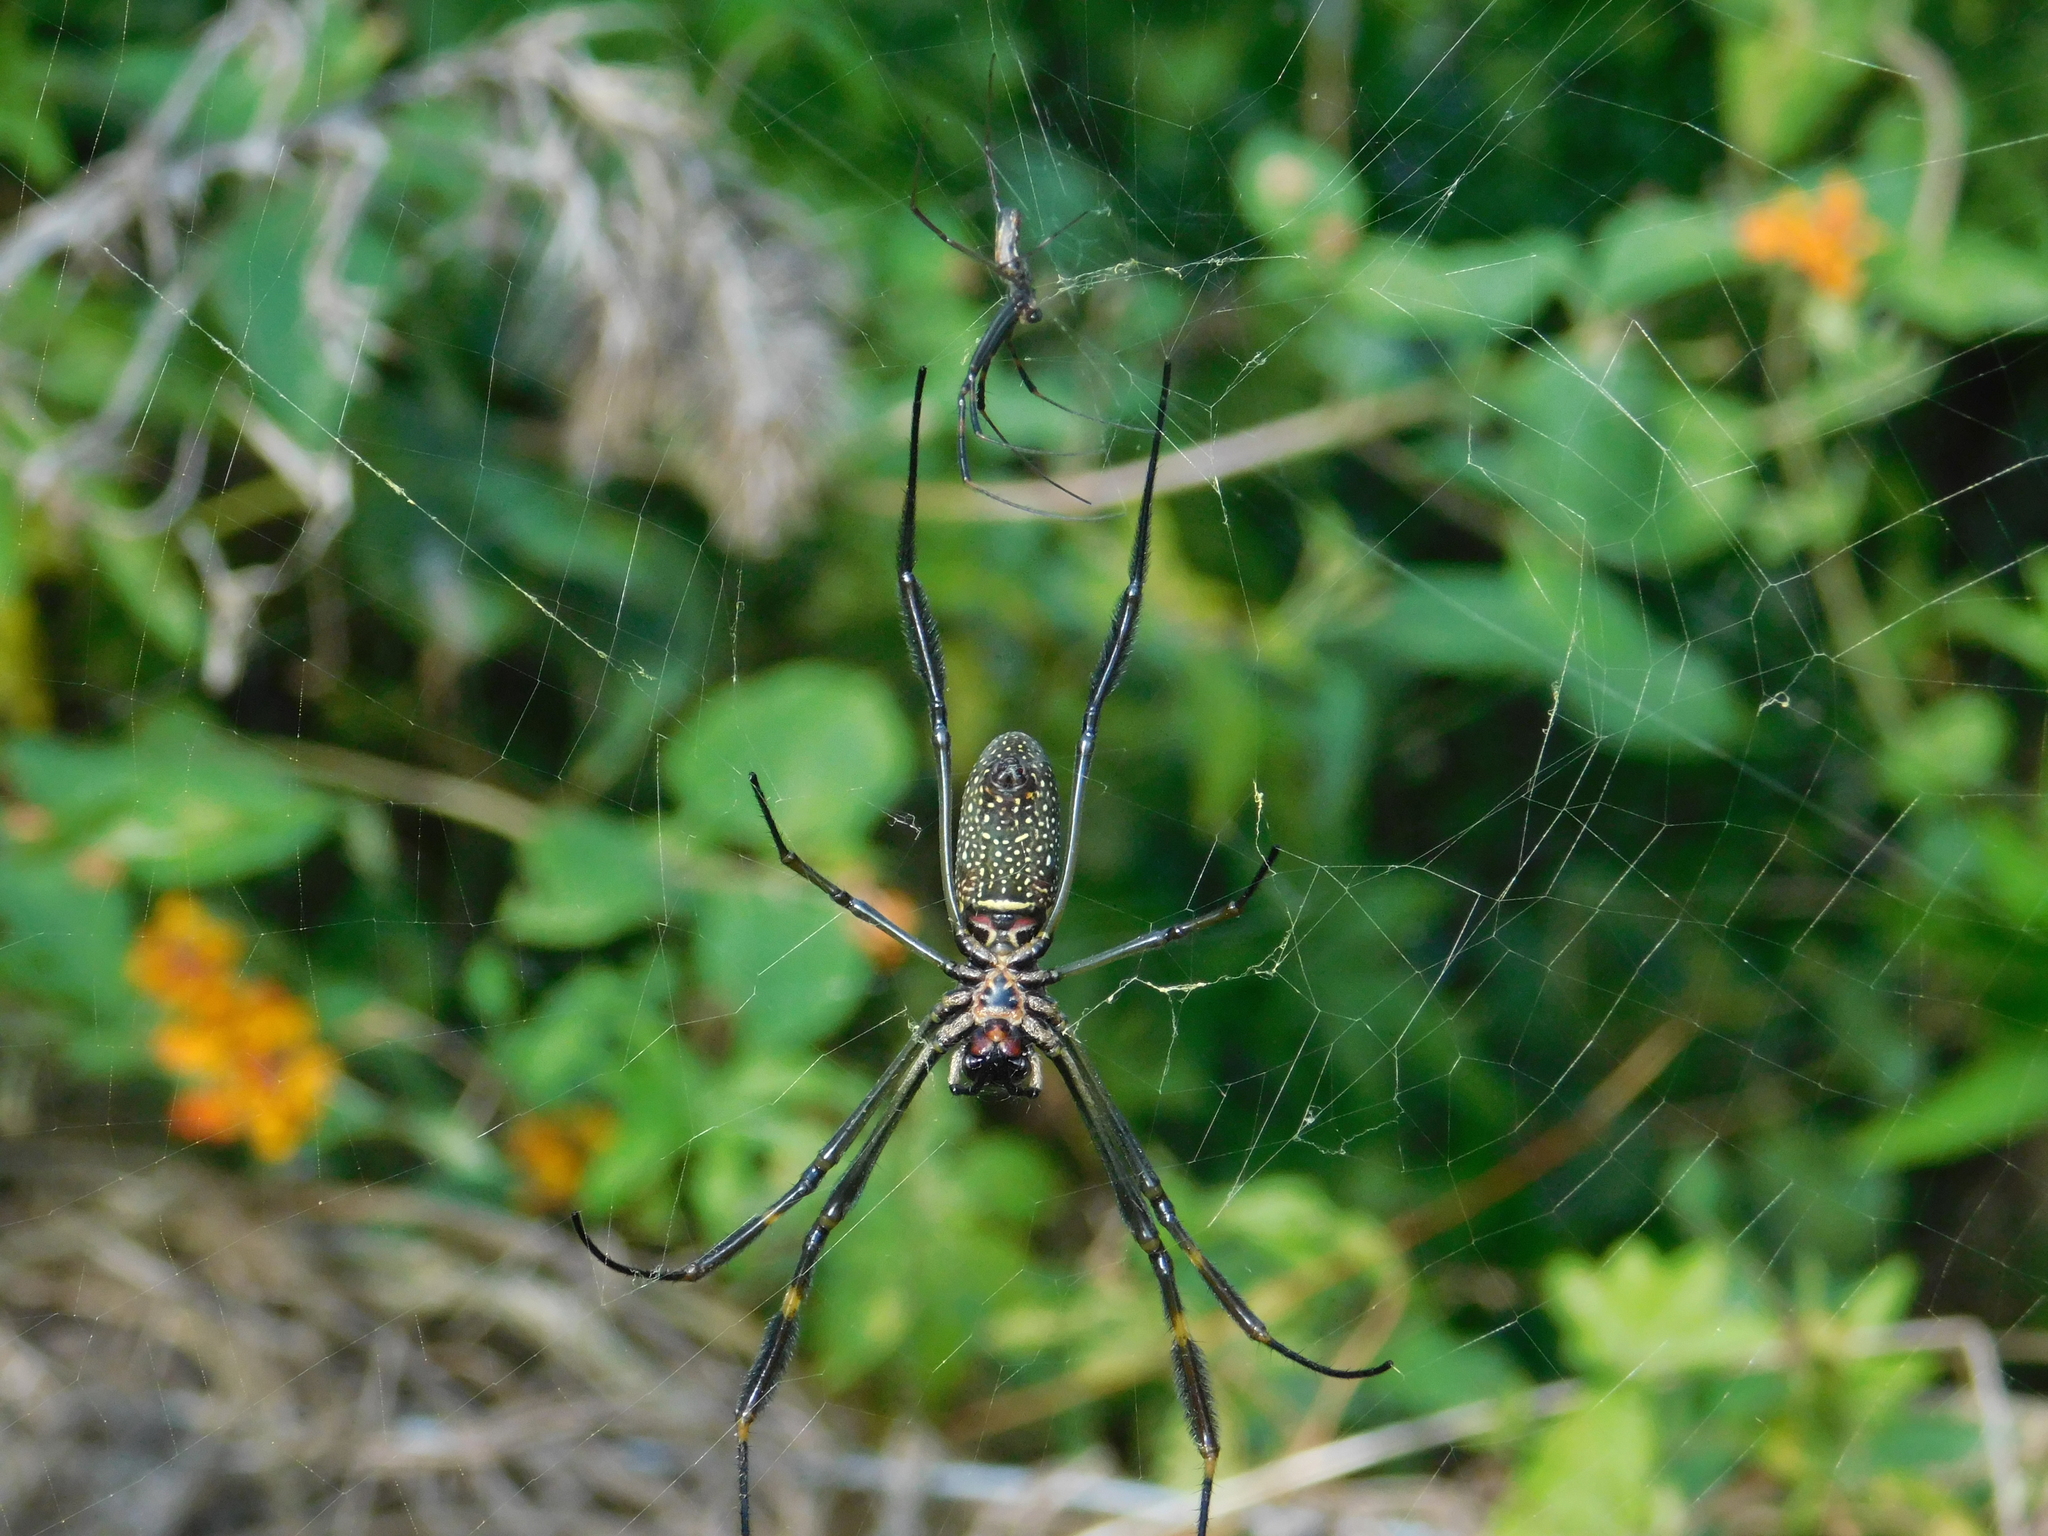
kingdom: Animalia
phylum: Arthropoda
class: Arachnida
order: Araneae
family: Araneidae
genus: Trichonephila
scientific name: Trichonephila clavipes
